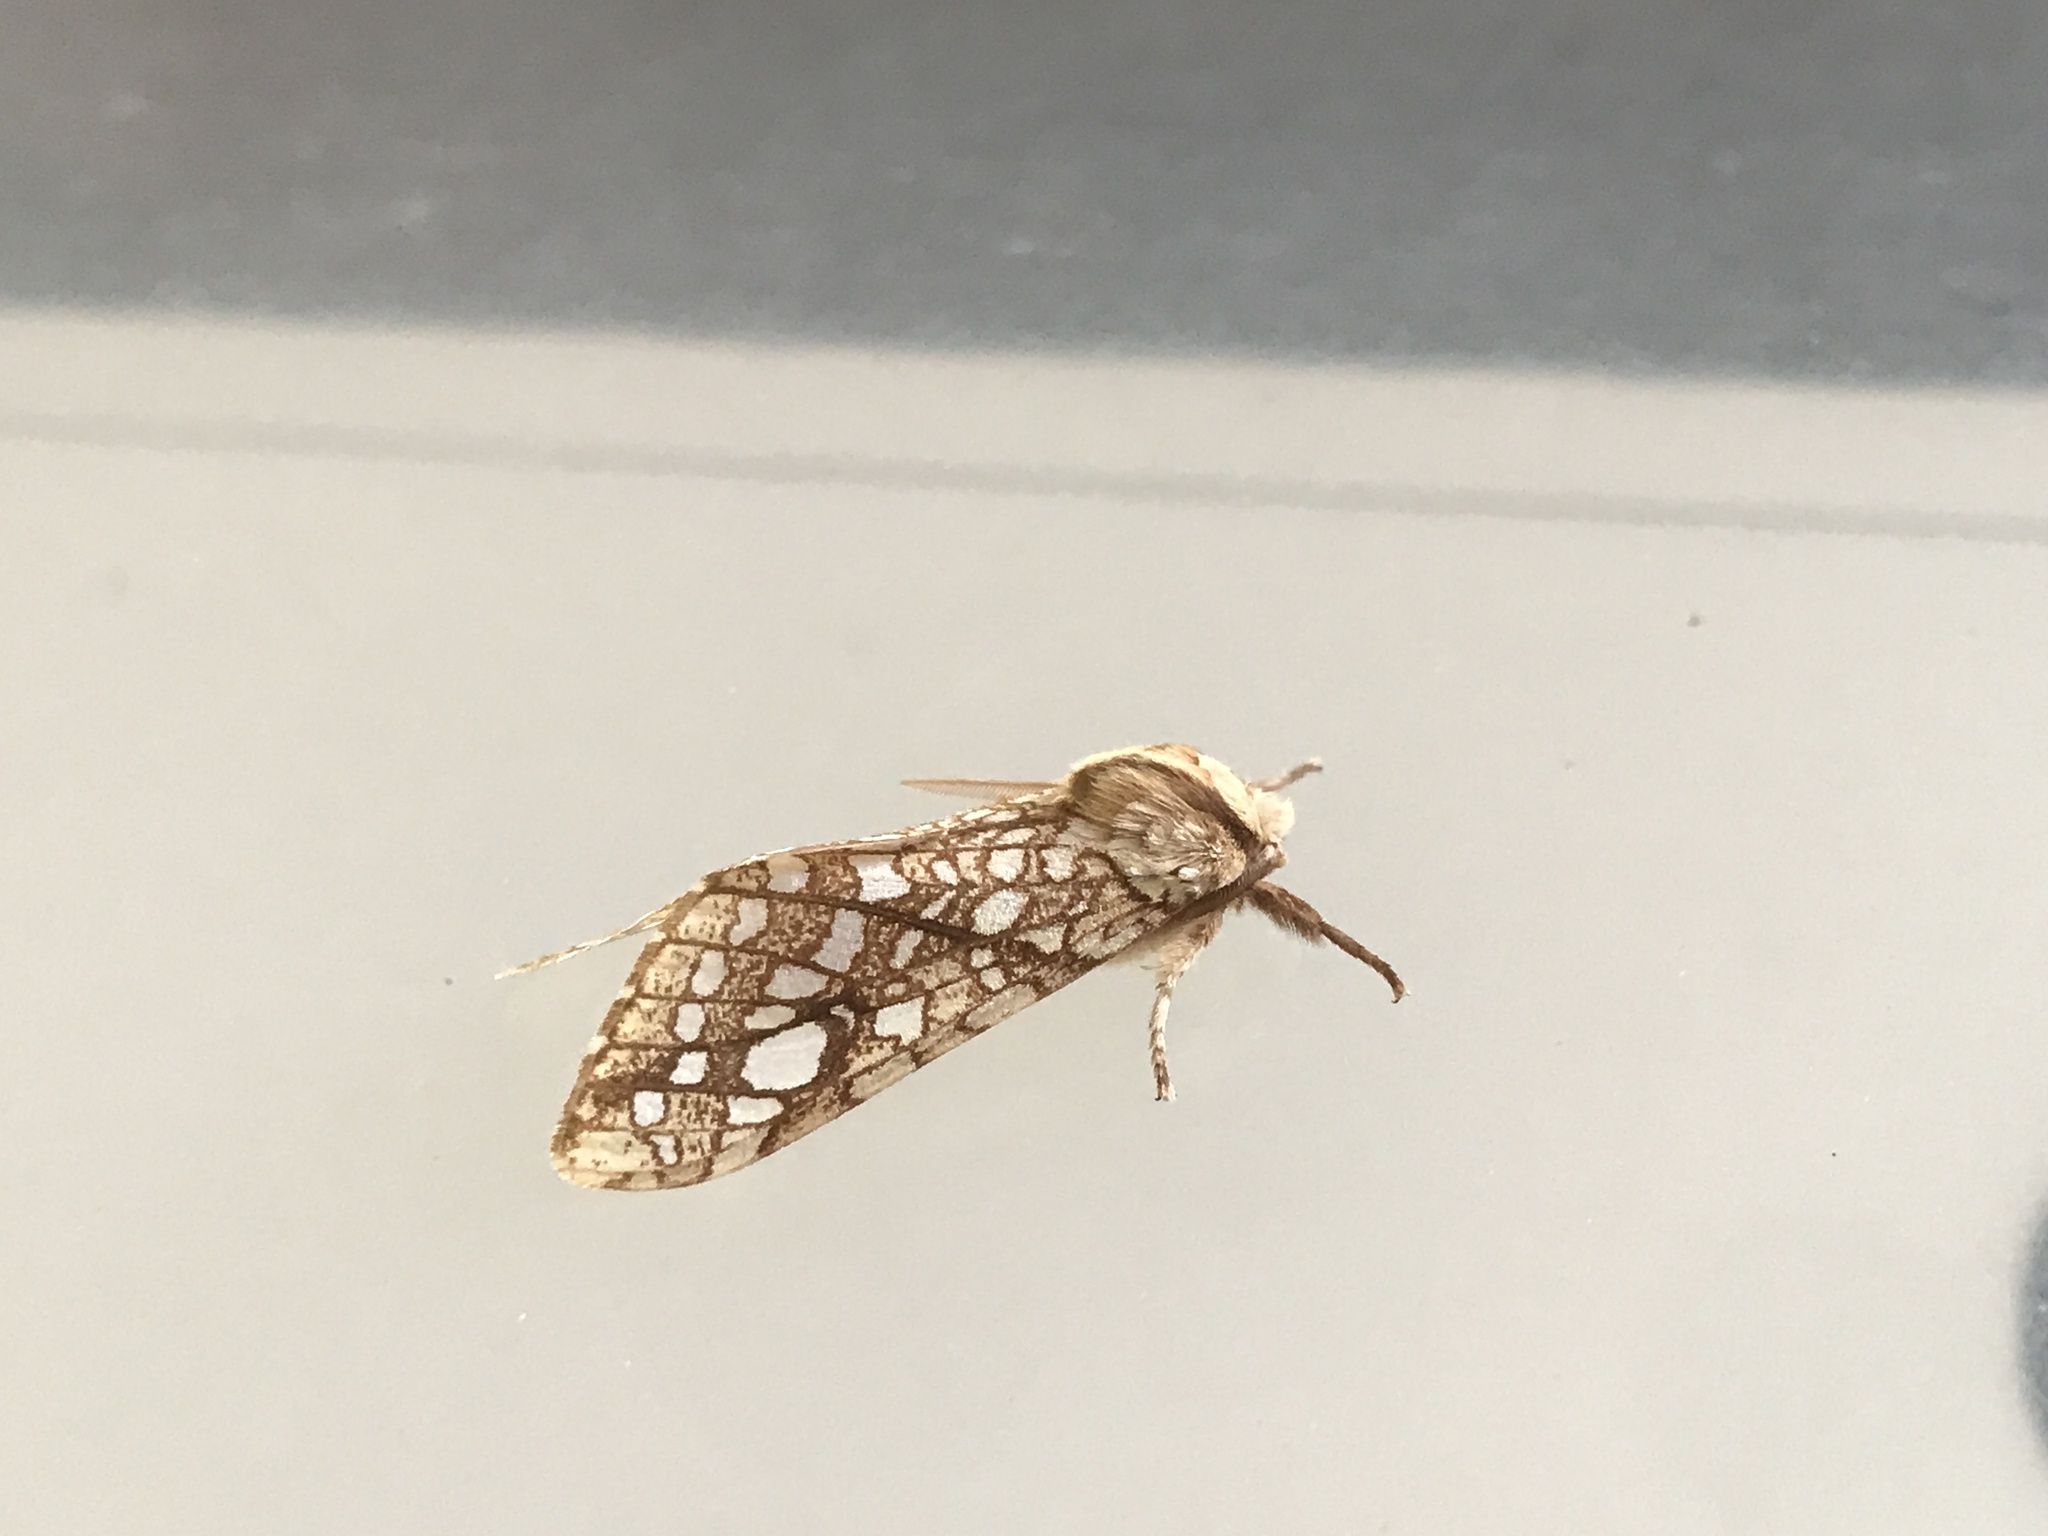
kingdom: Animalia
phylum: Arthropoda
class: Insecta
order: Lepidoptera
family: Erebidae
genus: Lophocampa
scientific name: Lophocampa caryae
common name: Hickory tussock moth
